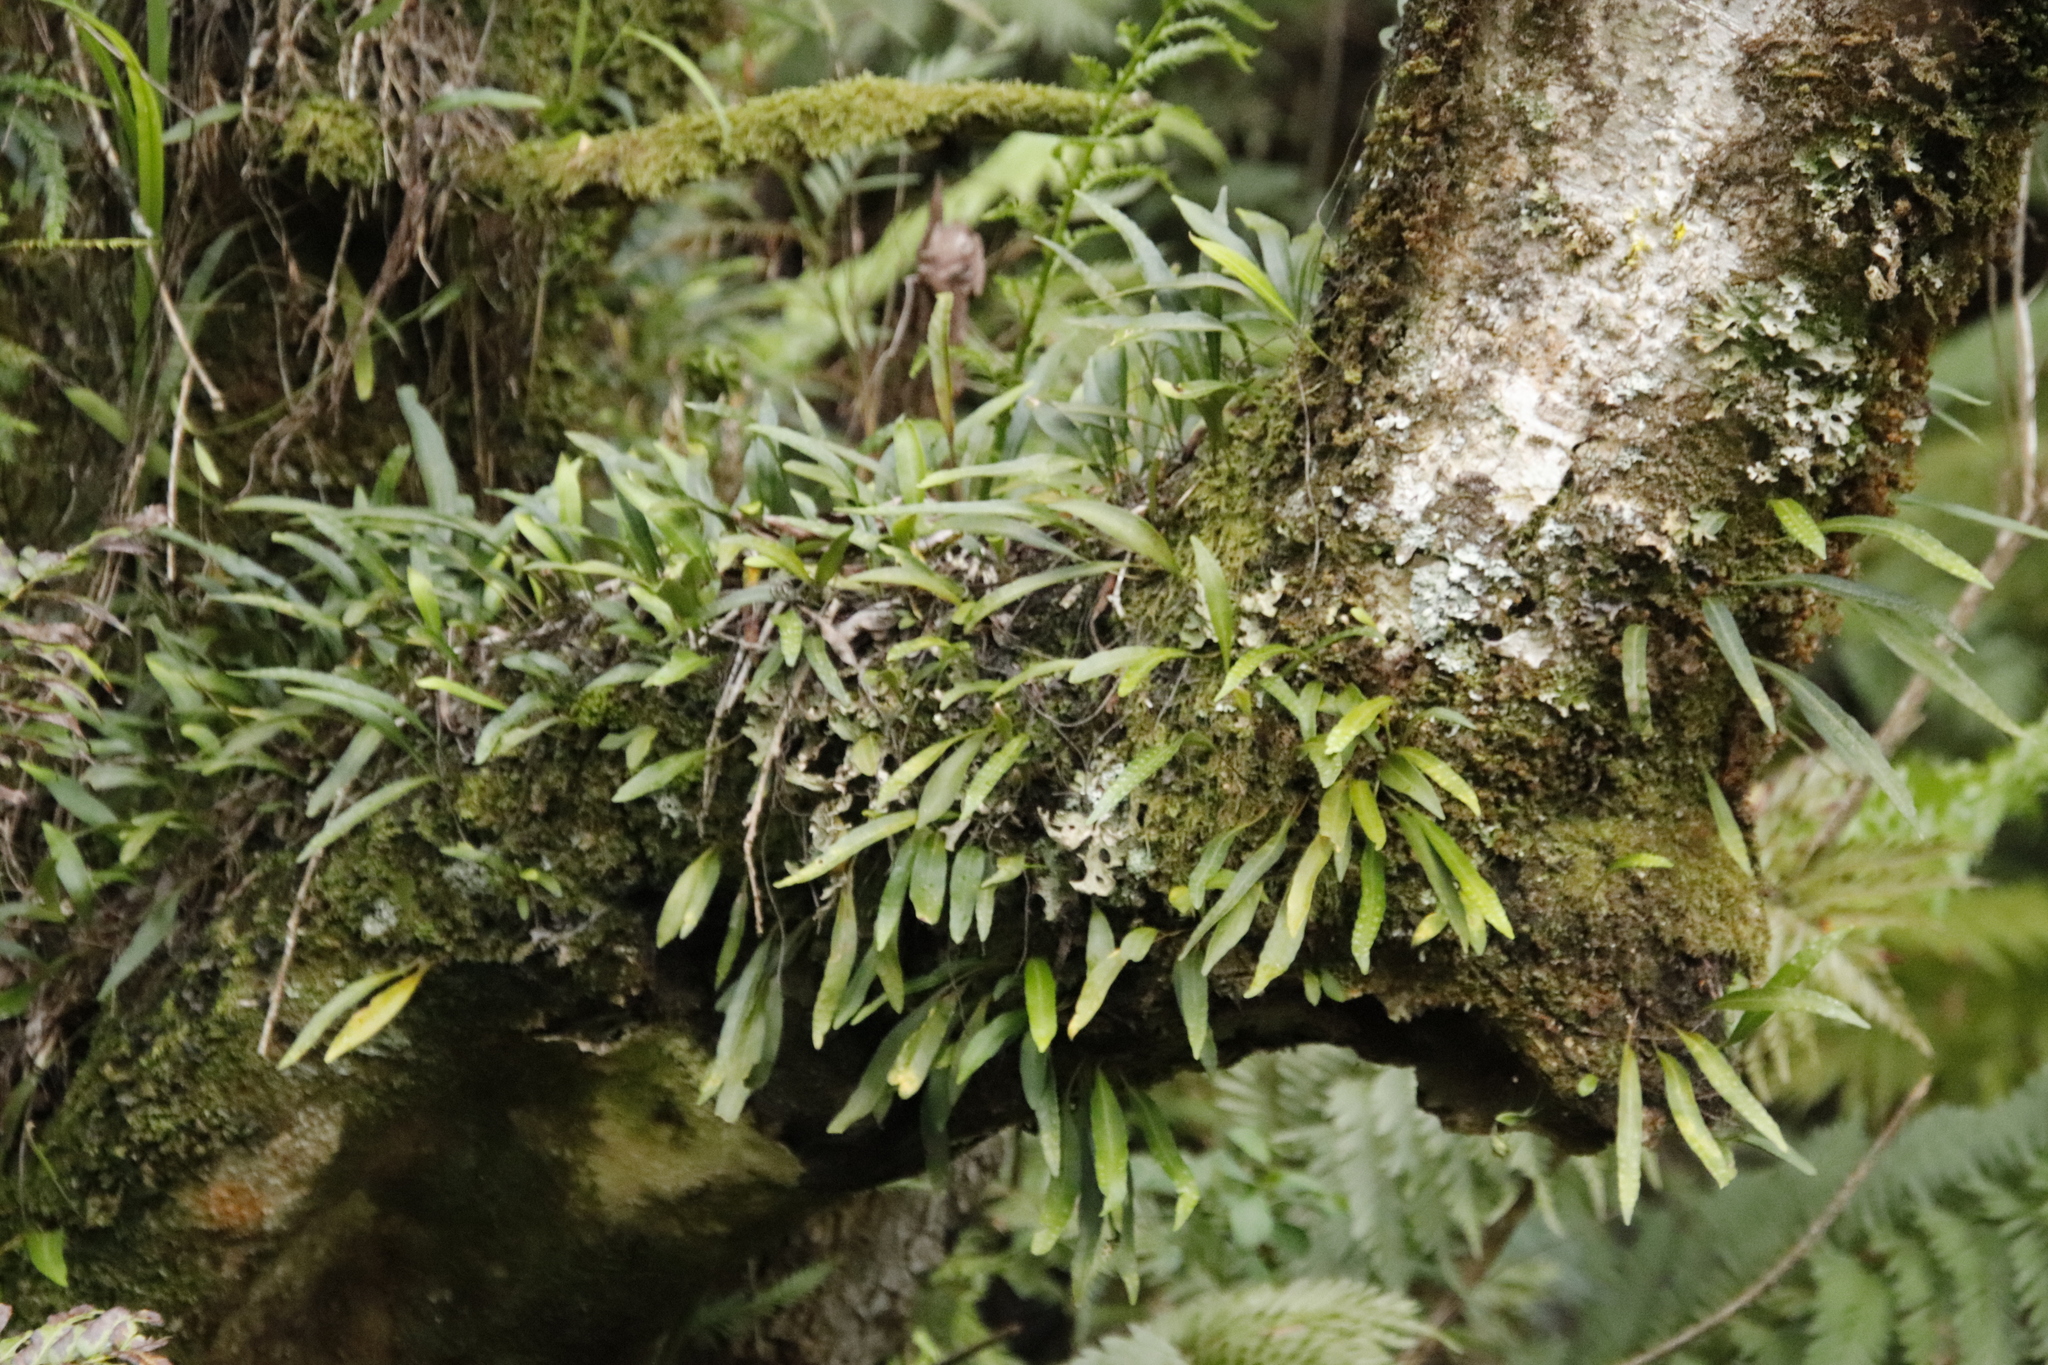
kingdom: Plantae
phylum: Tracheophyta
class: Polypodiopsida
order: Polypodiales
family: Polypodiaceae
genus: Pleopeltis
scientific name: Pleopeltis macrocarpa
